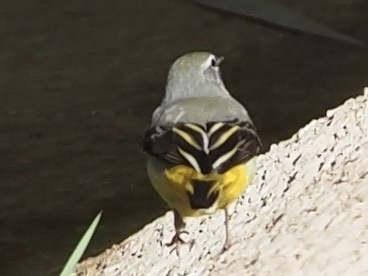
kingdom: Animalia
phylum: Chordata
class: Aves
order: Passeriformes
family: Motacillidae
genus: Motacilla
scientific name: Motacilla cinerea
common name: Grey wagtail
